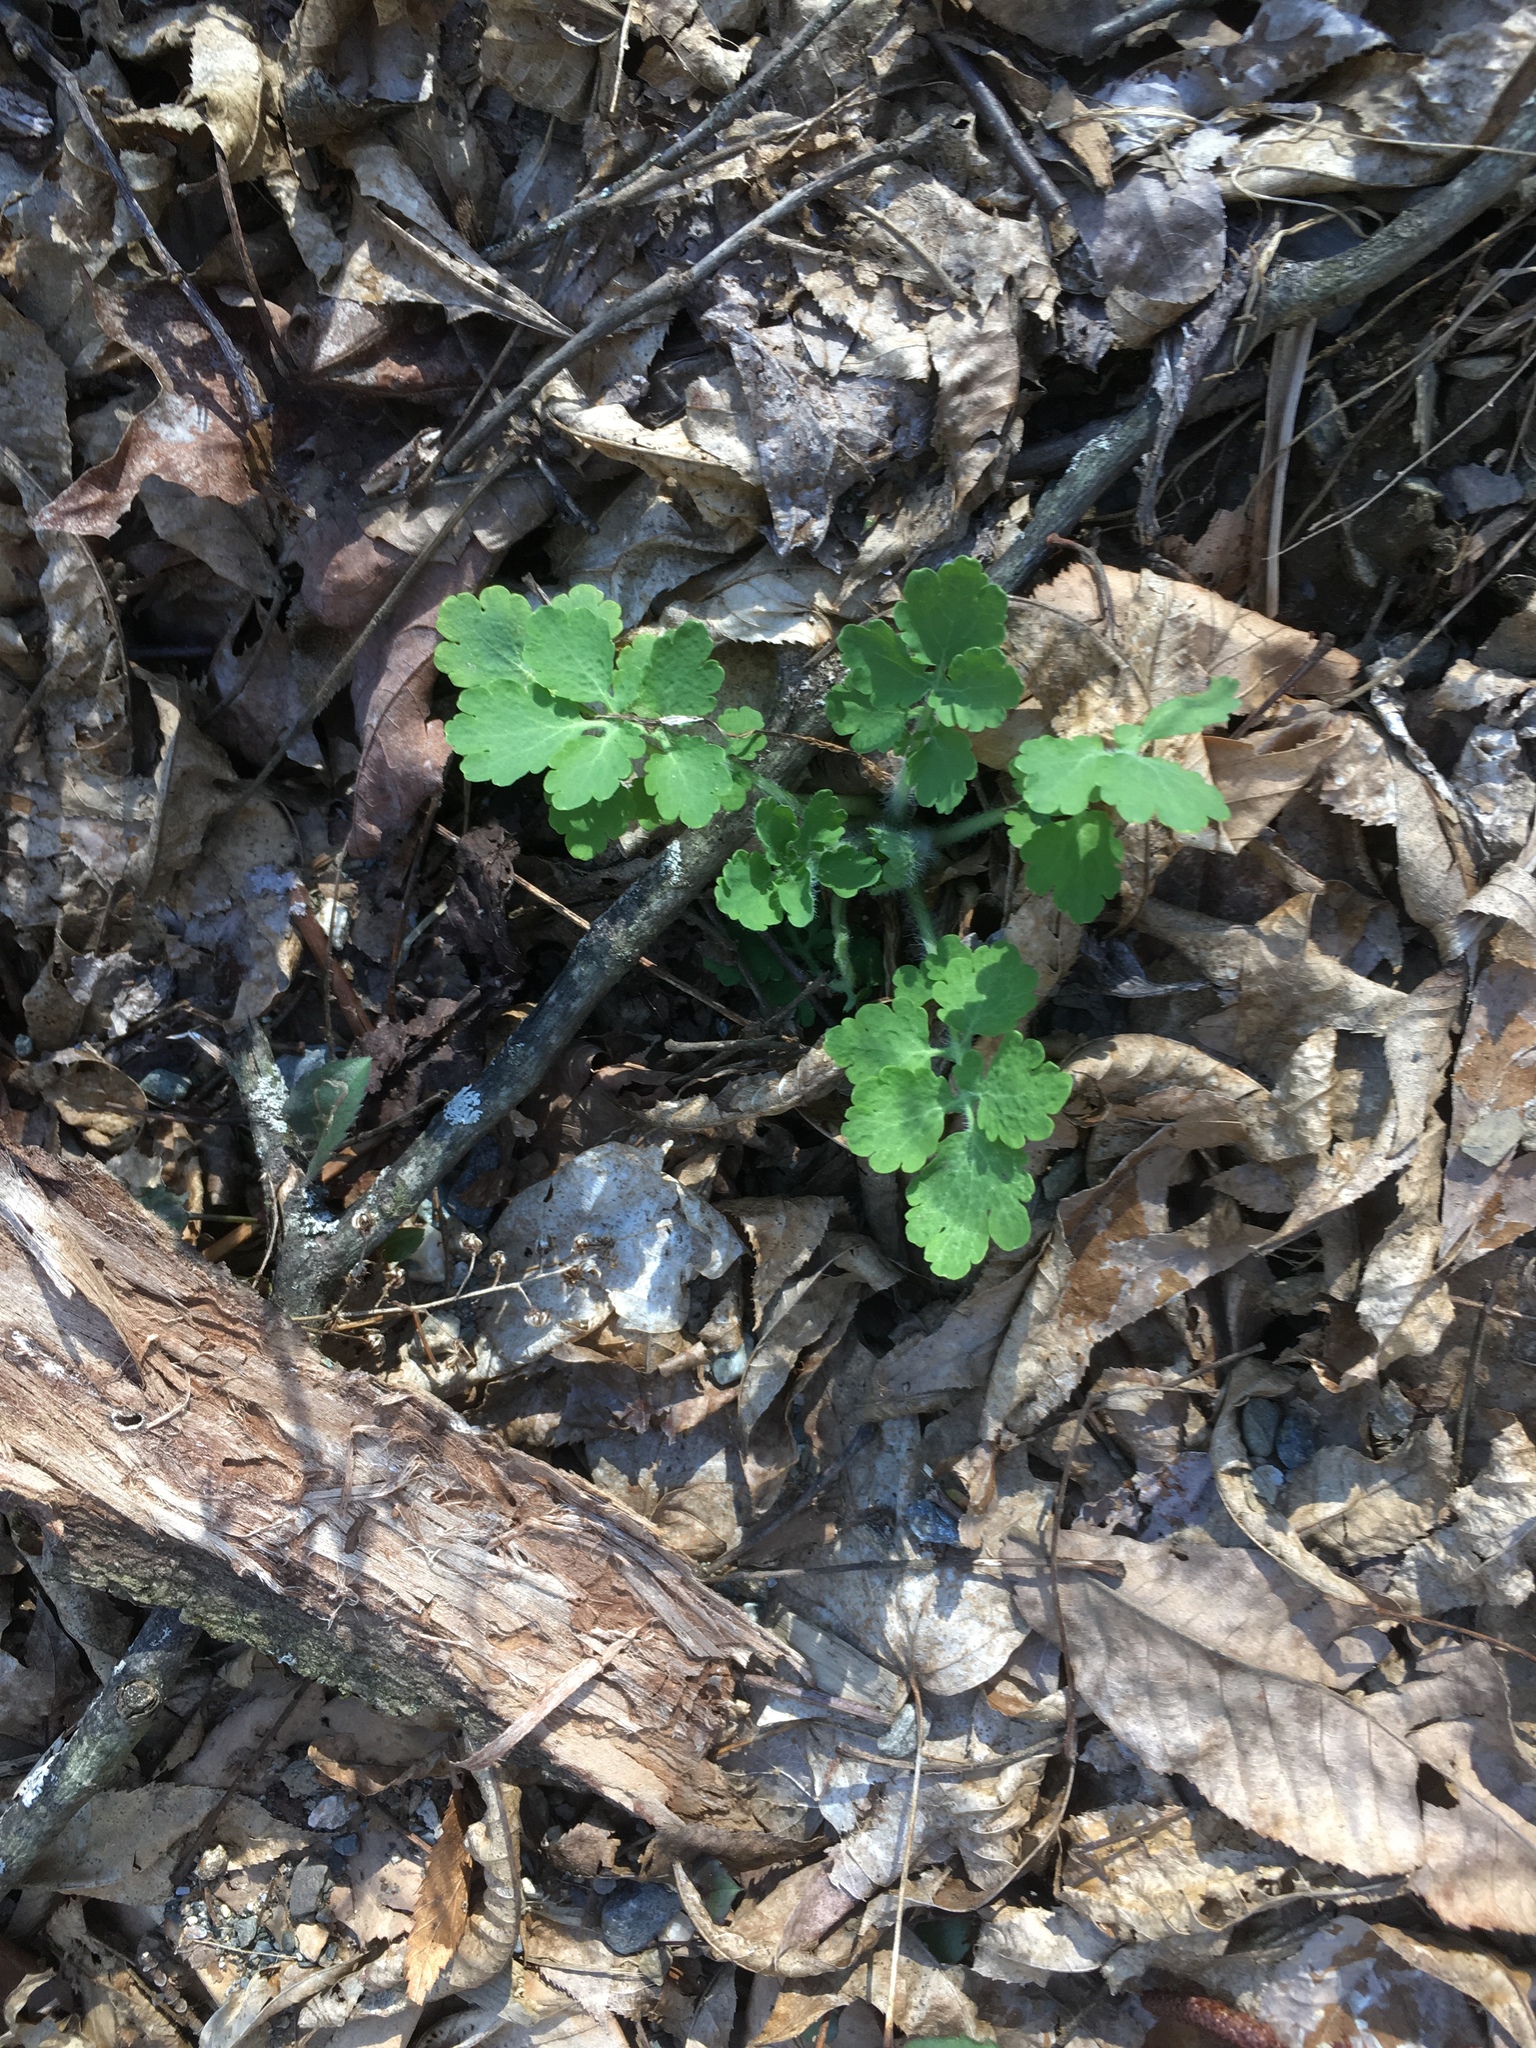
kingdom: Plantae
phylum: Tracheophyta
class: Magnoliopsida
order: Ranunculales
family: Papaveraceae
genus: Chelidonium
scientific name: Chelidonium majus
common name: Greater celandine
